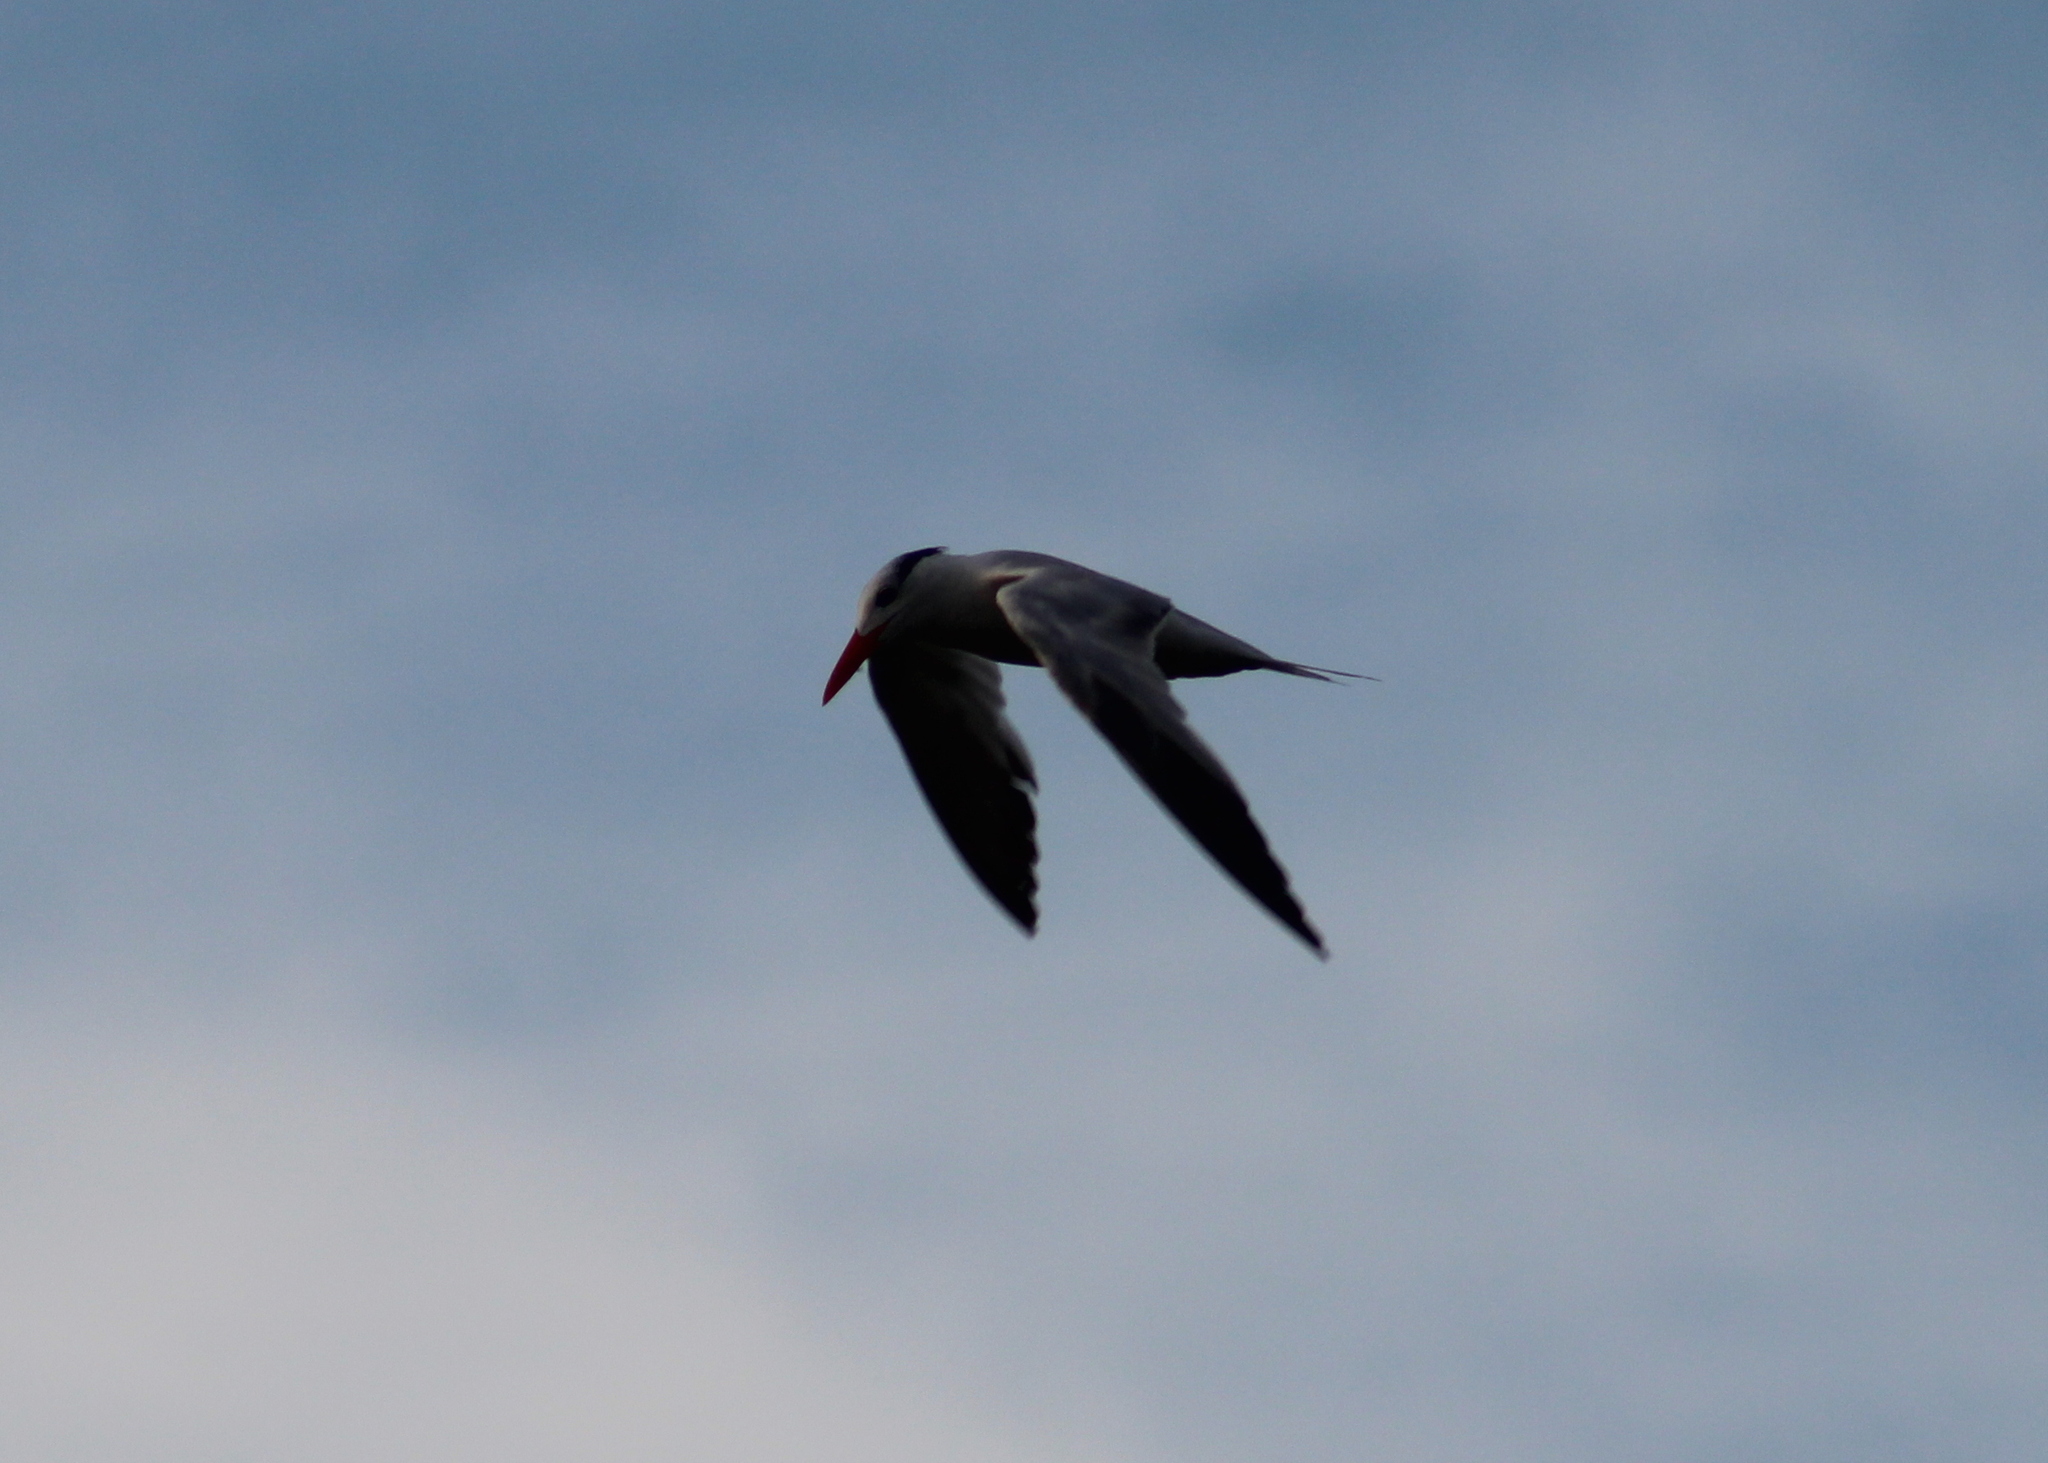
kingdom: Animalia
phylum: Chordata
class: Aves
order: Charadriiformes
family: Laridae
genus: Thalasseus
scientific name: Thalasseus maximus
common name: Royal tern
